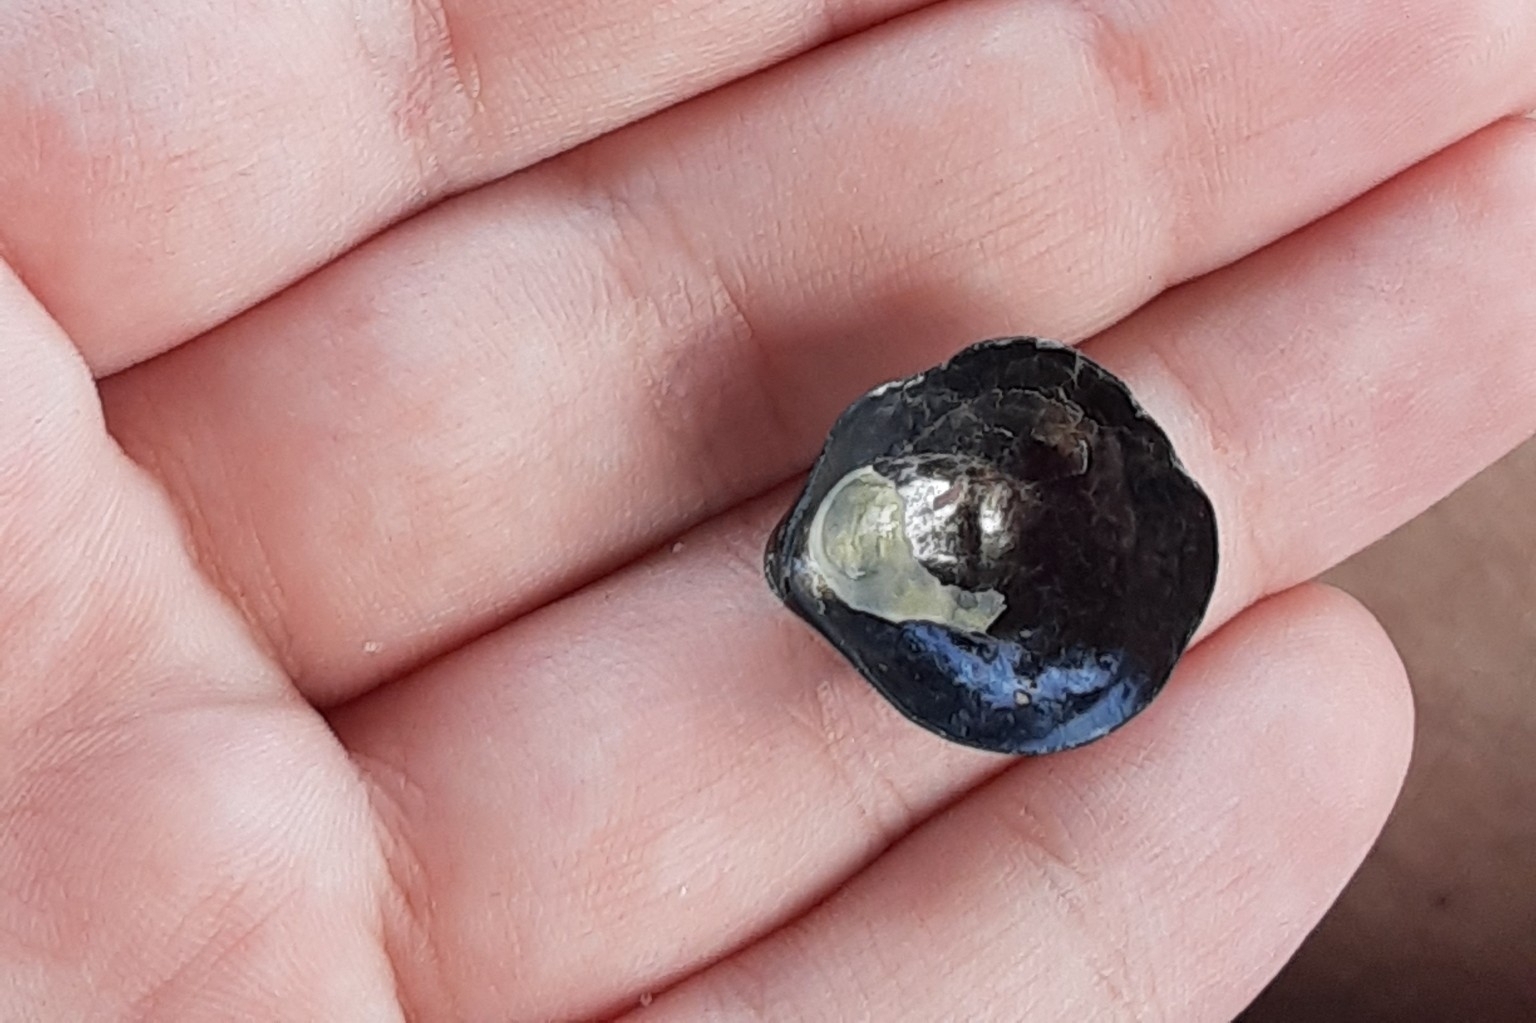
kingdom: Animalia
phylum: Mollusca
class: Bivalvia
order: Pectinida
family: Anomiidae
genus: Anomia
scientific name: Anomia simplex
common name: Common jingle shell
